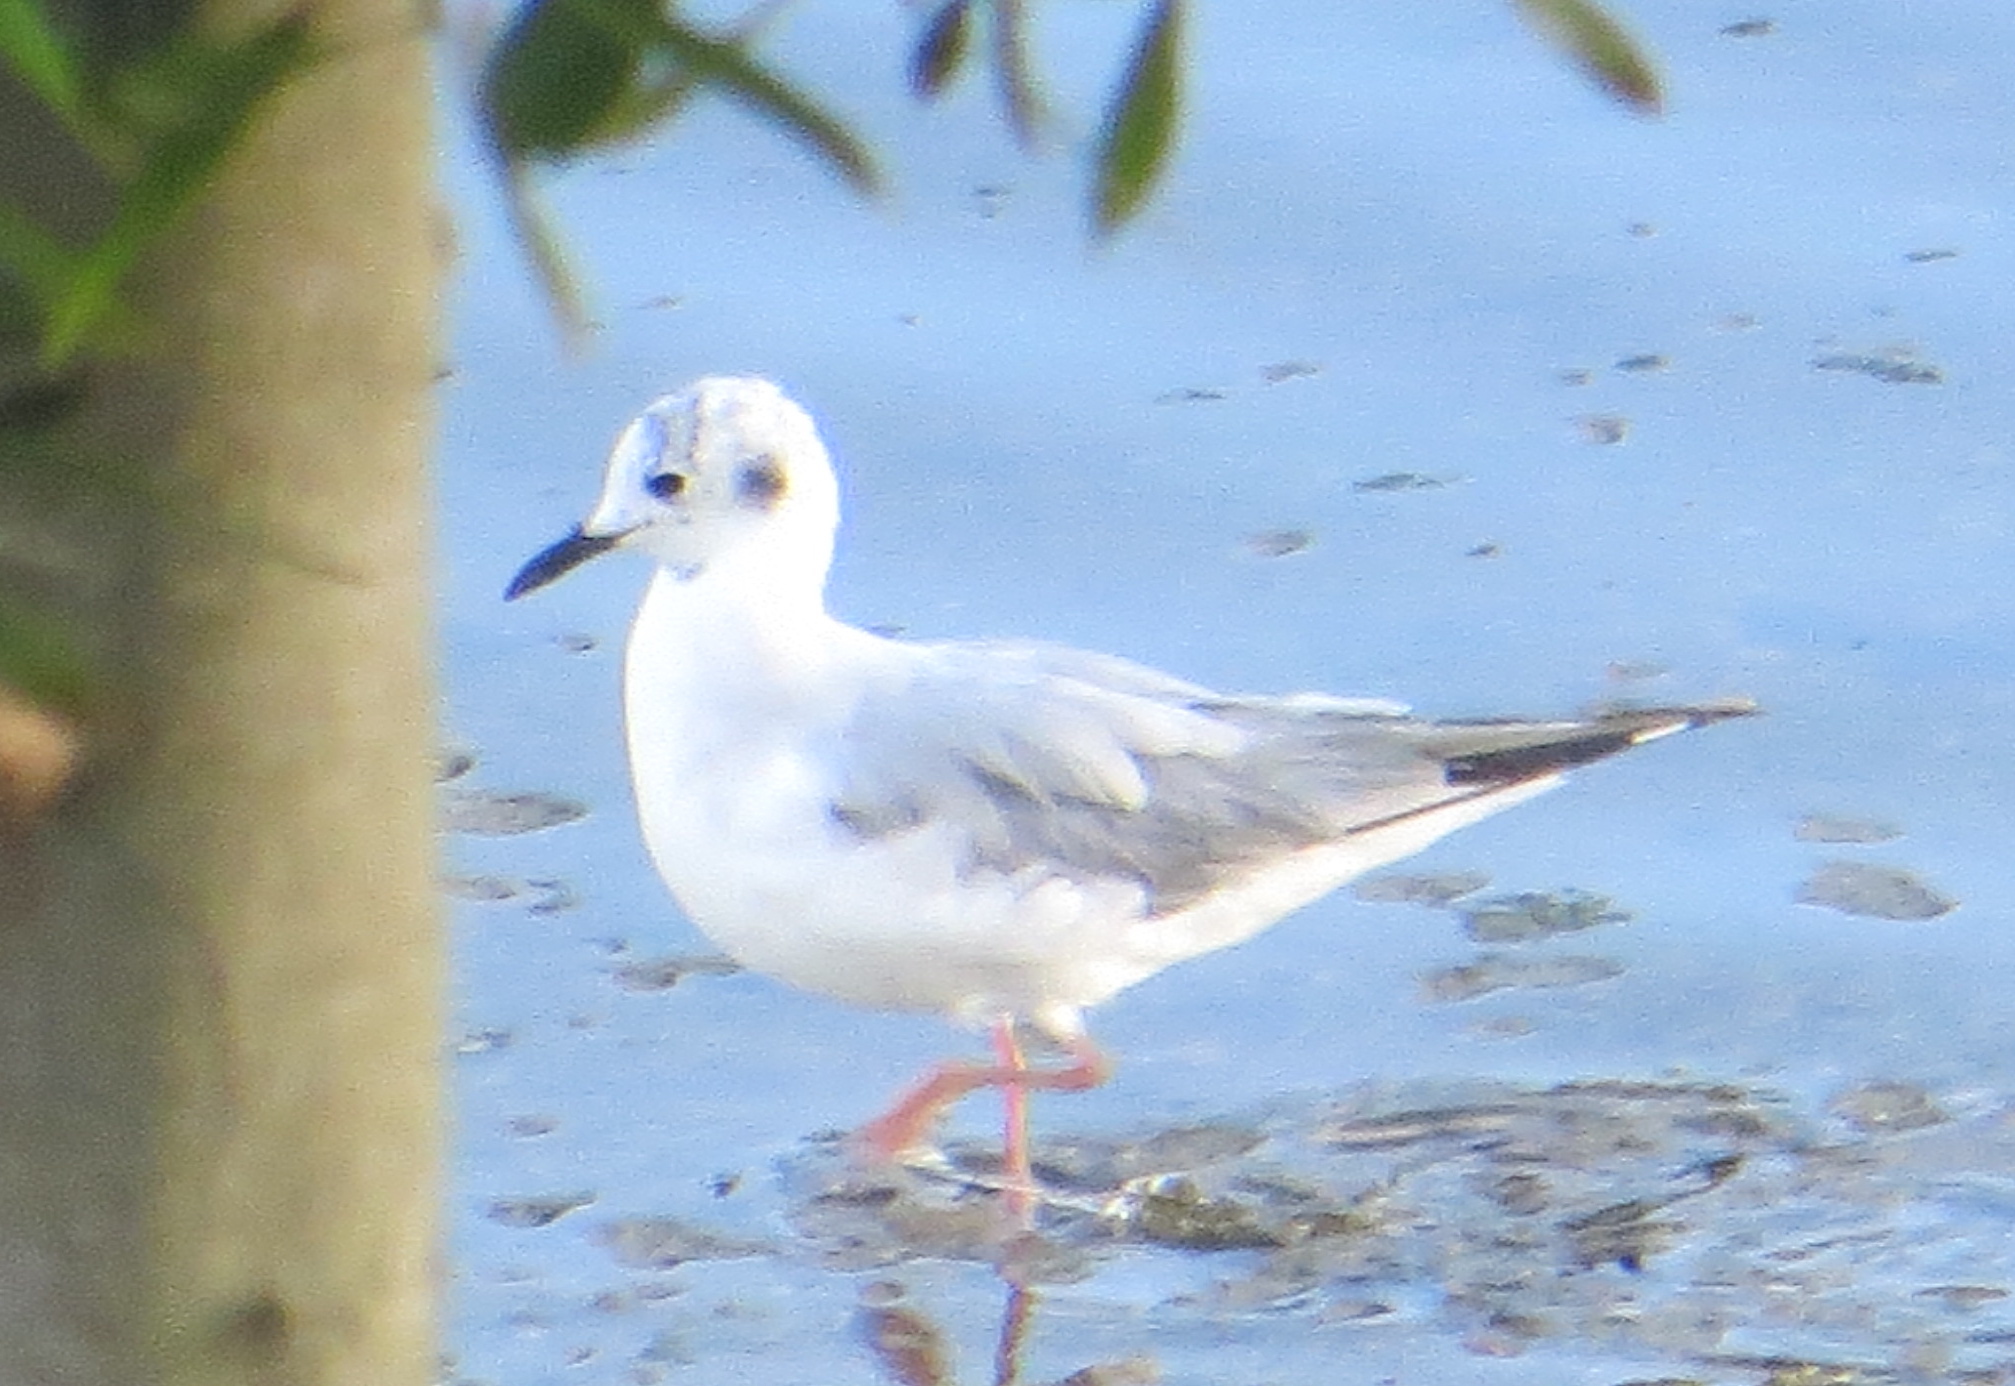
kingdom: Animalia
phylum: Chordata
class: Aves
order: Charadriiformes
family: Laridae
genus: Chroicocephalus
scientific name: Chroicocephalus philadelphia
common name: Bonaparte's gull
